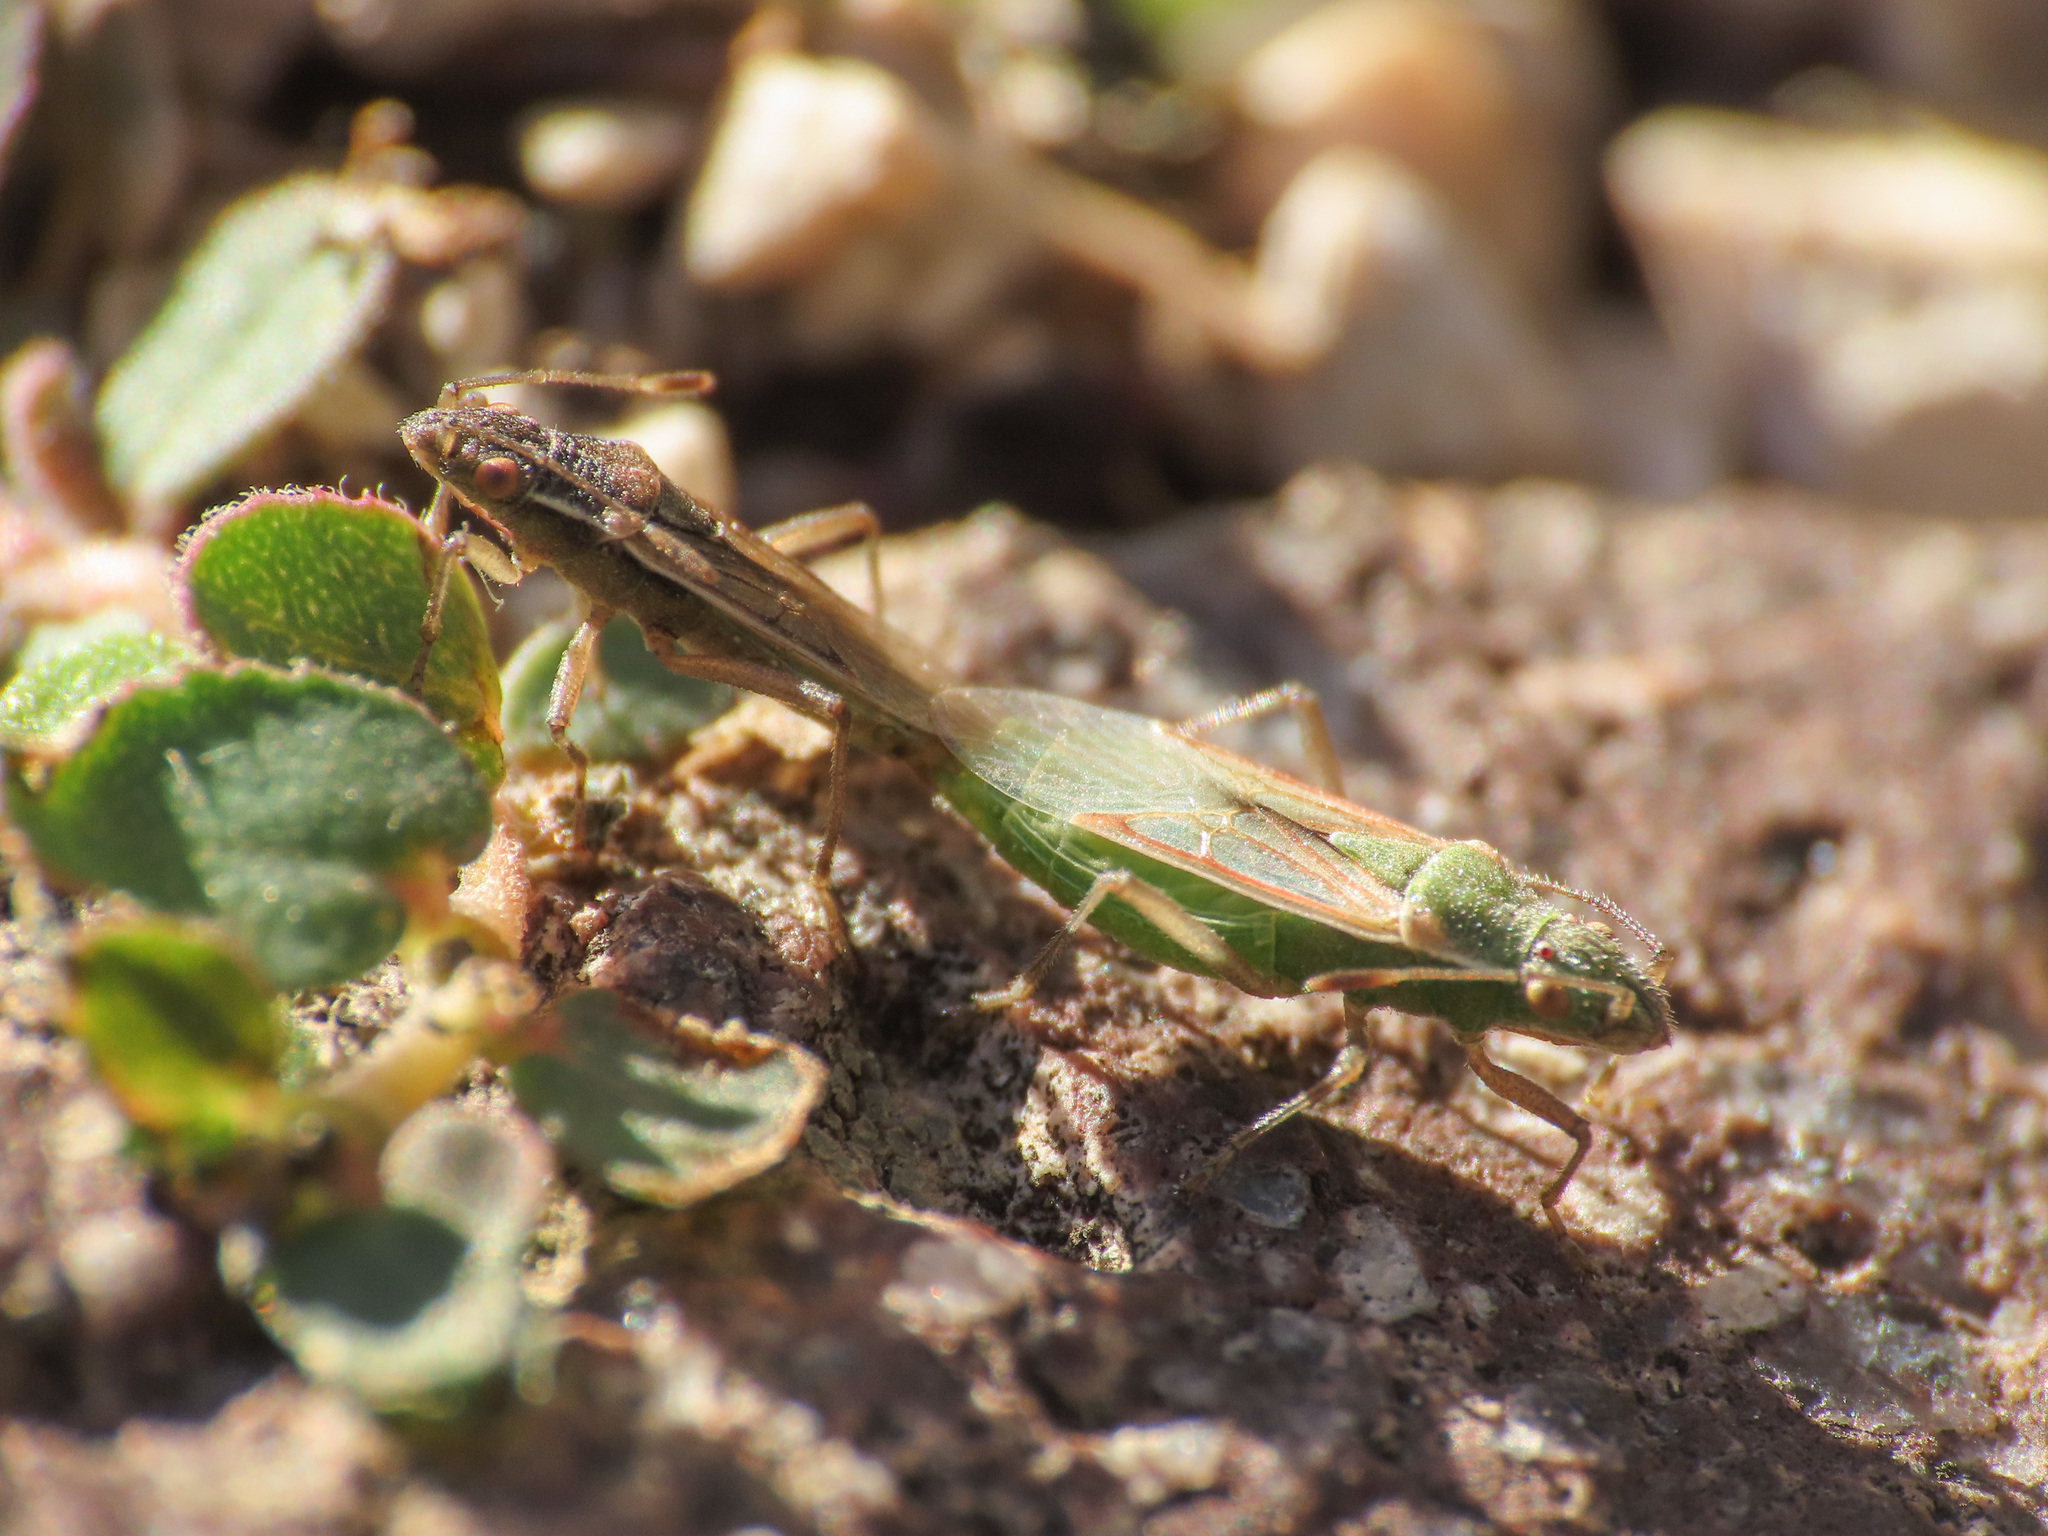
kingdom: Animalia
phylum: Arthropoda
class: Insecta
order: Hemiptera
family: Rhopalidae
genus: Agraphopus
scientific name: Agraphopus lethierryi
